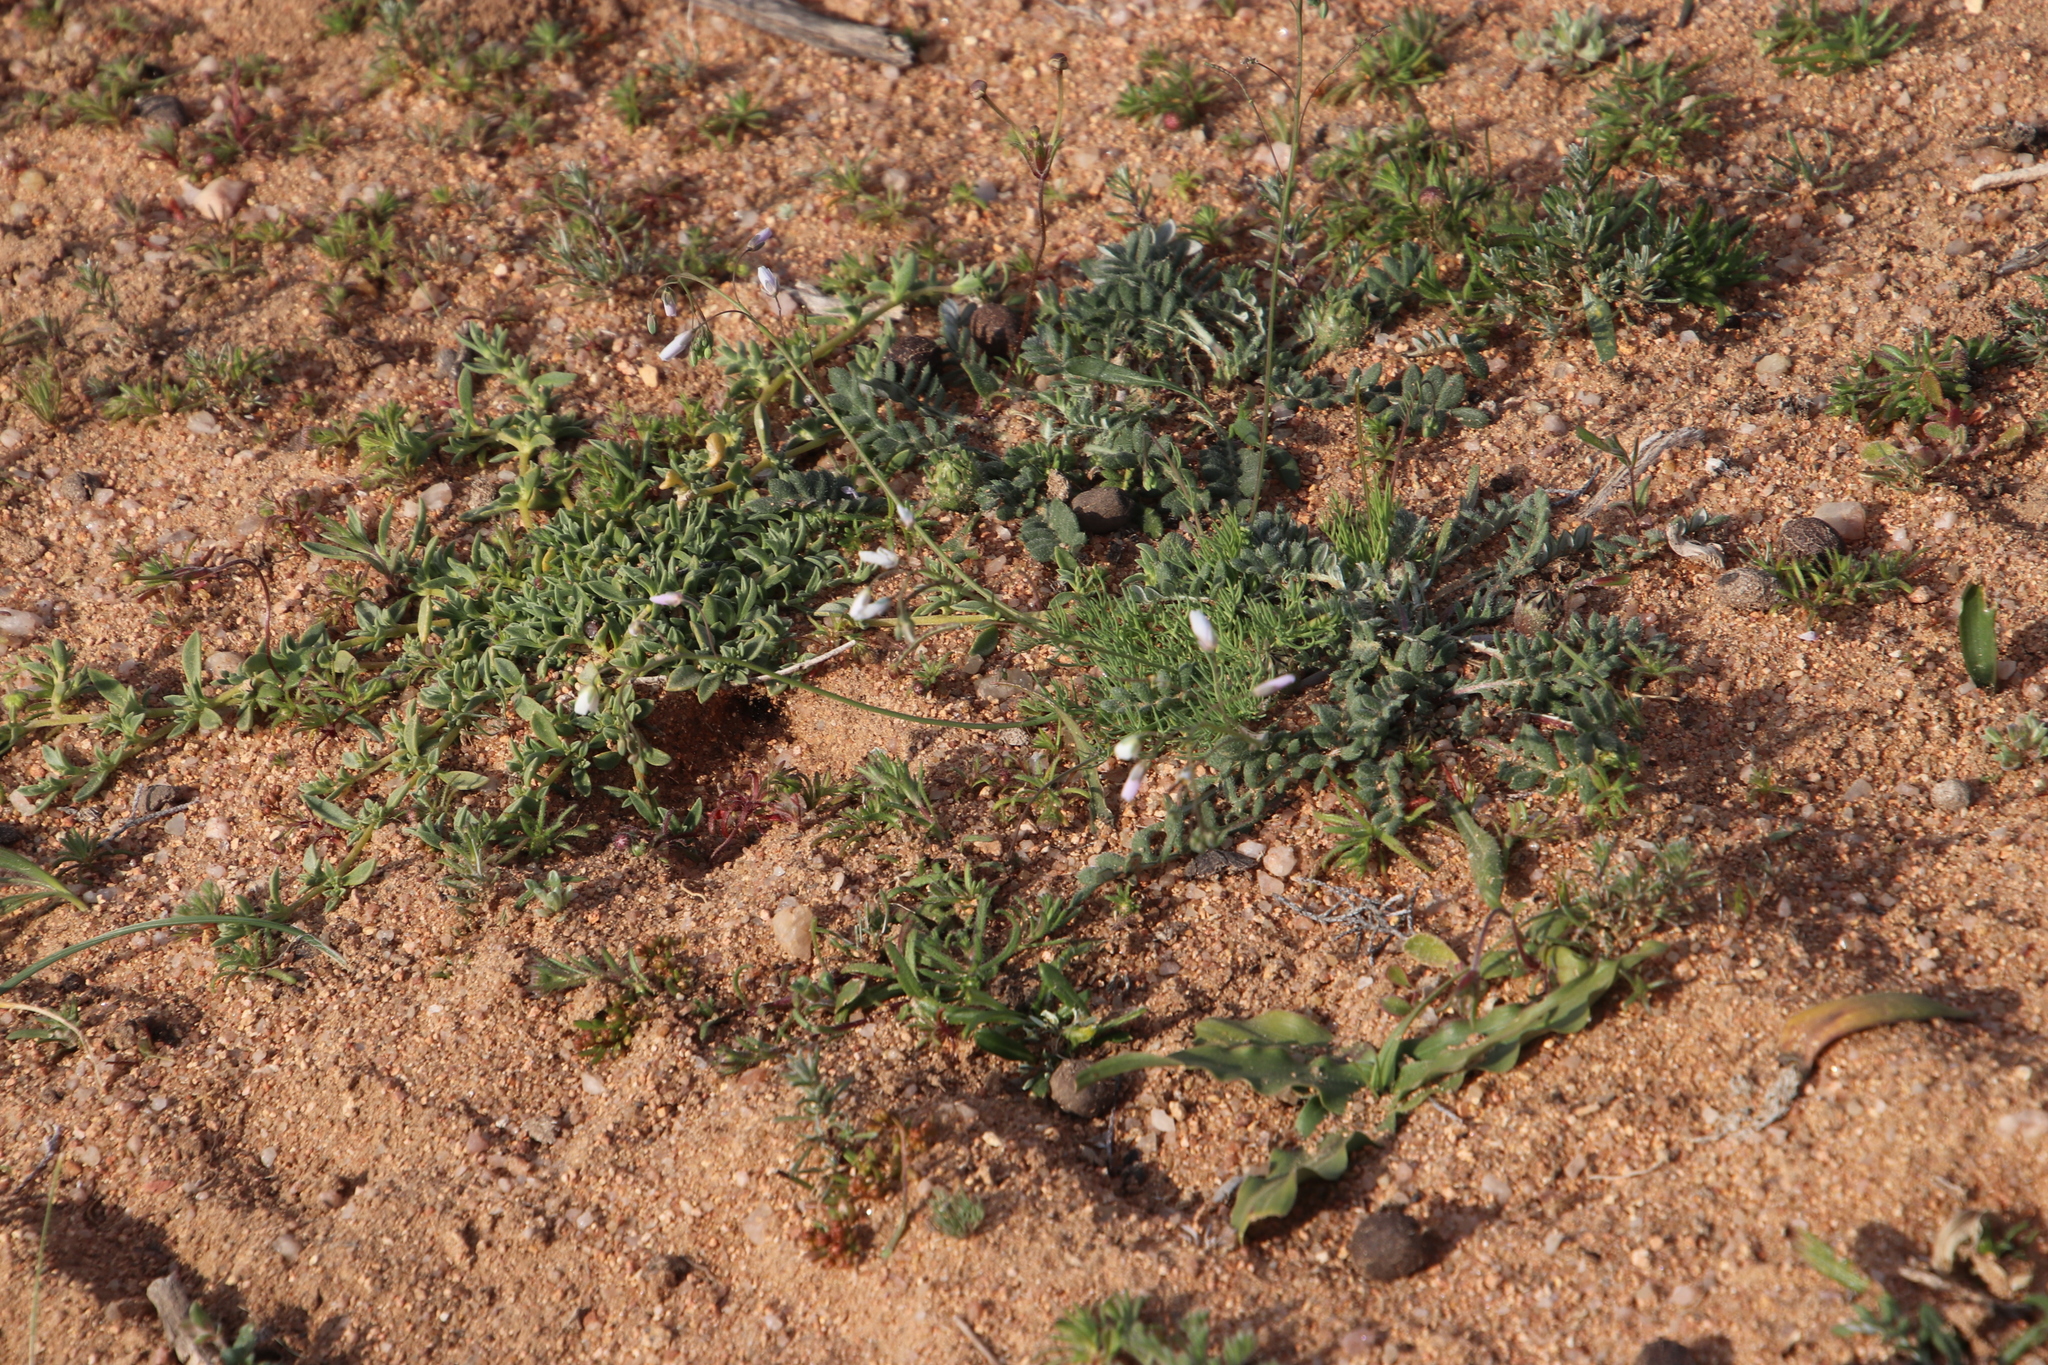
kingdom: Plantae
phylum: Tracheophyta
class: Magnoliopsida
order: Brassicales
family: Brassicaceae
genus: Heliophila
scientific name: Heliophila seselifolia
